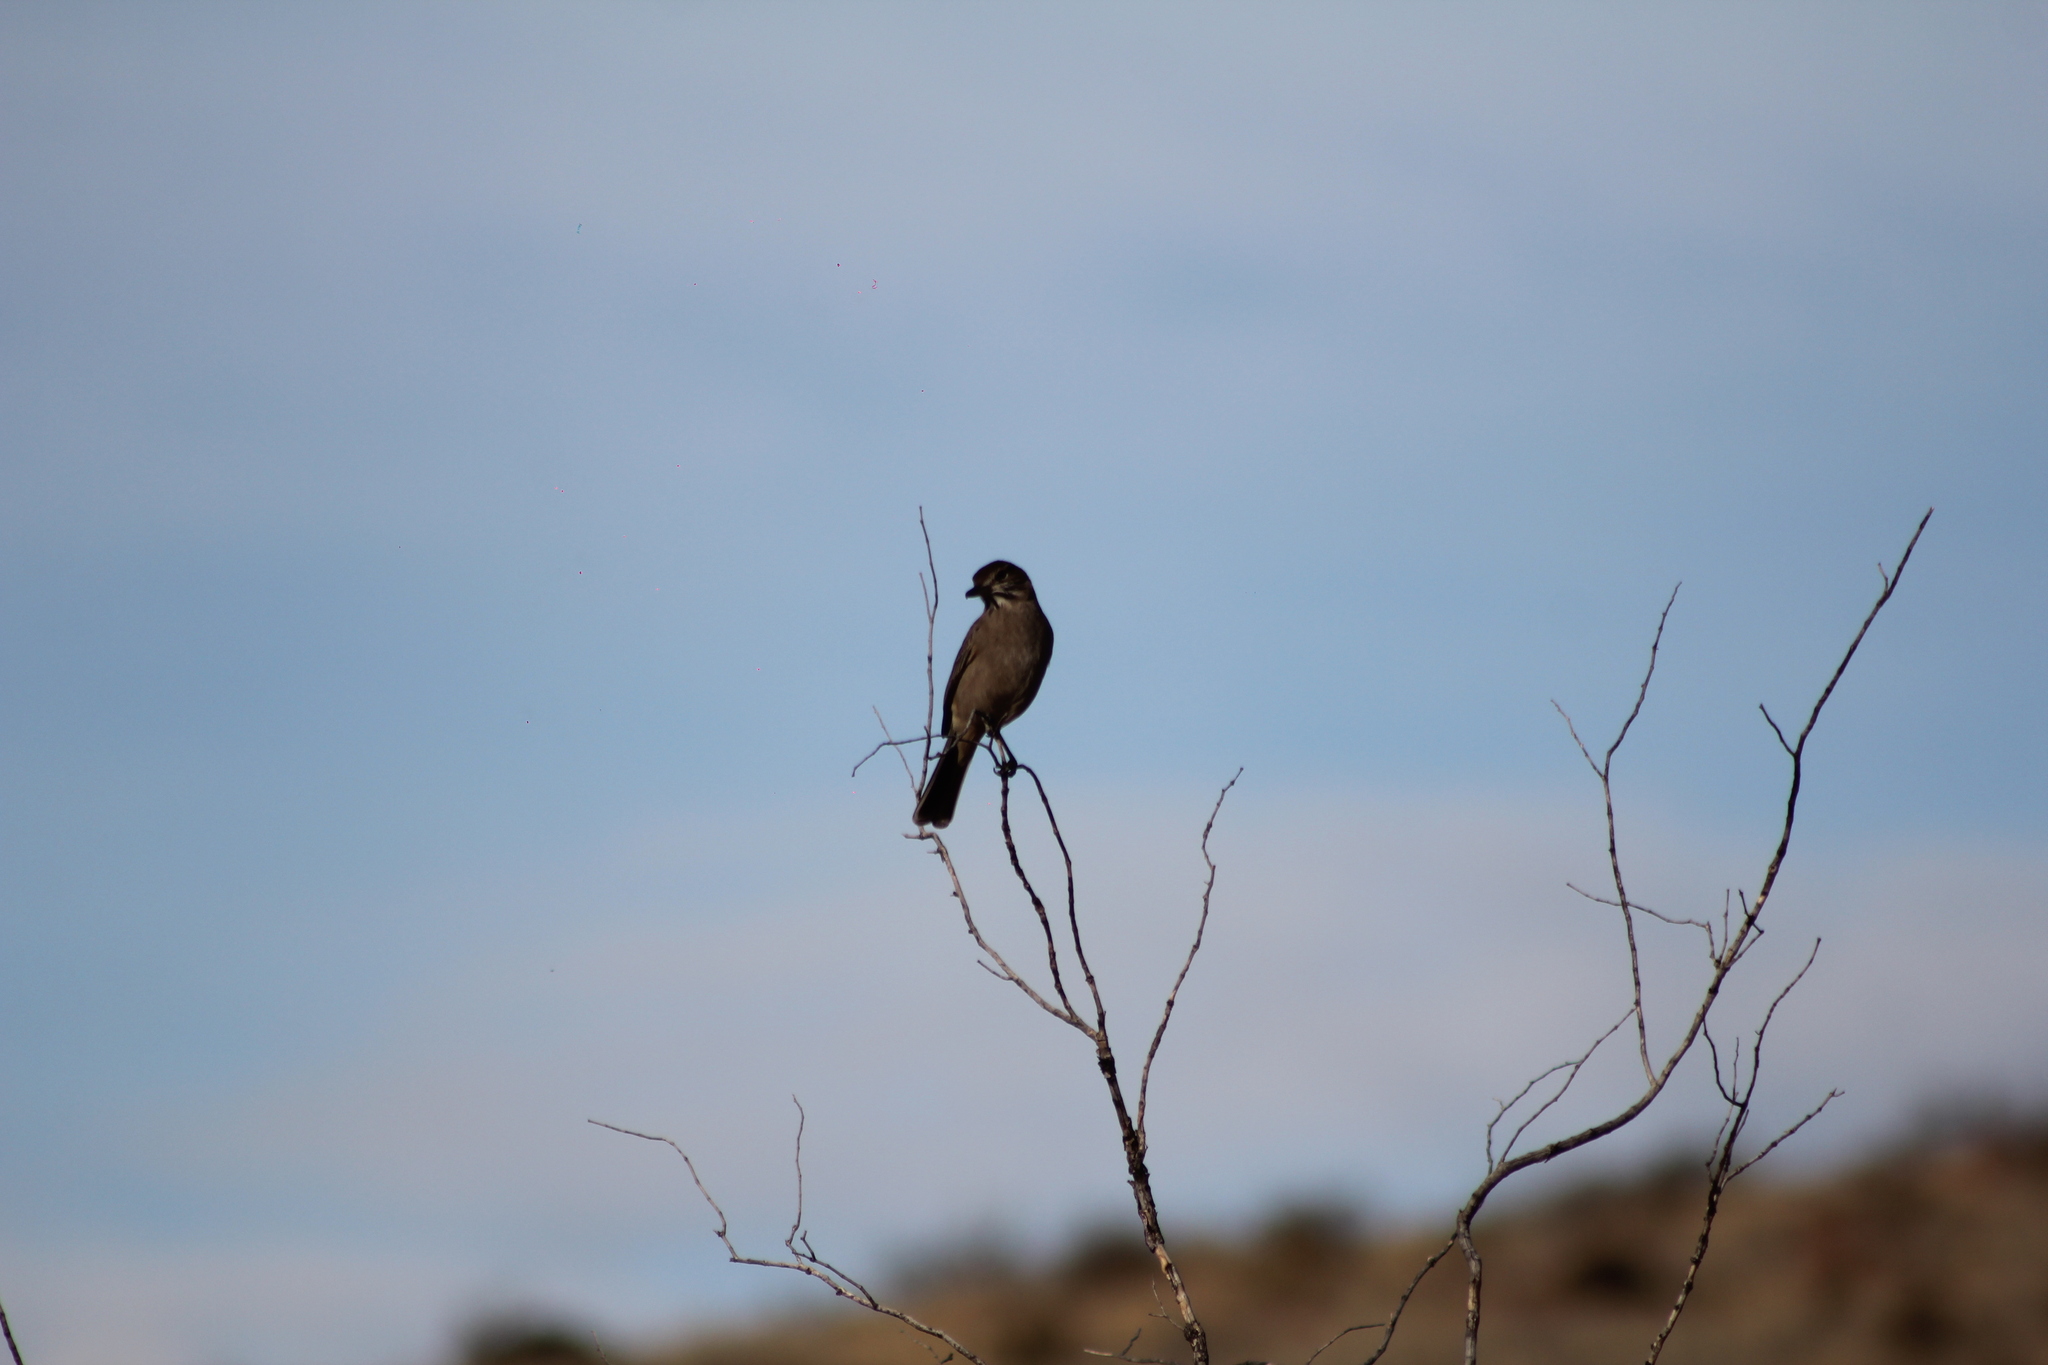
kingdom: Animalia
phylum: Chordata
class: Aves
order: Passeriformes
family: Tyrannidae
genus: Agriornis
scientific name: Agriornis micropterus
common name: Grey-bellied shrike-tyrant
